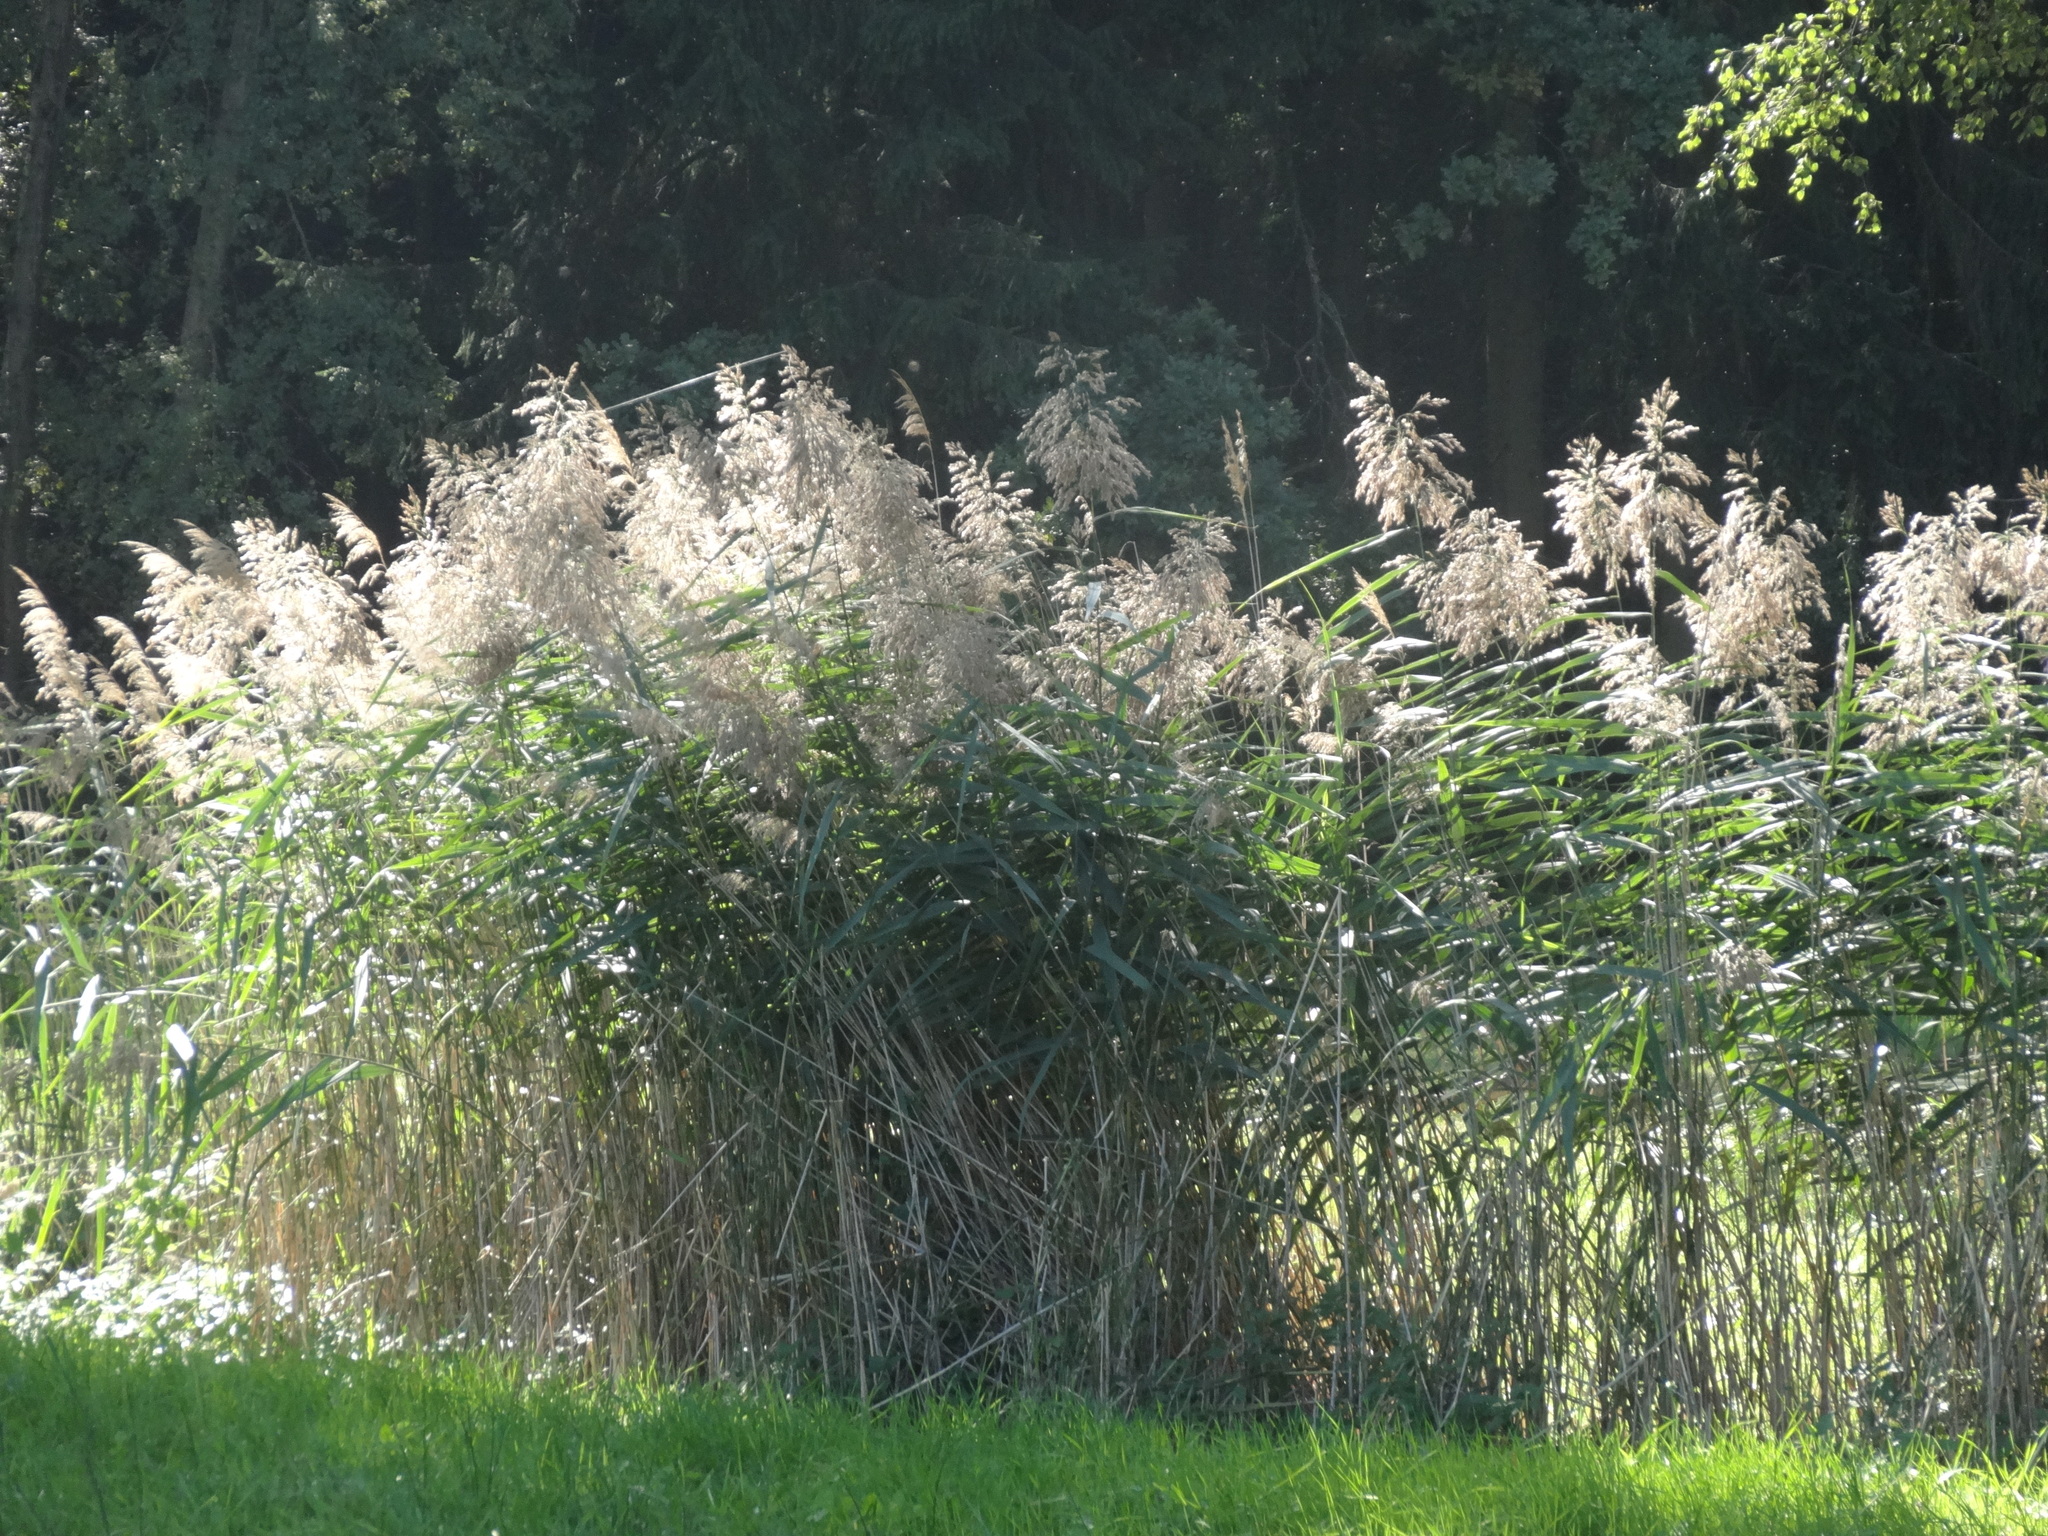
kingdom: Plantae
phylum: Tracheophyta
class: Liliopsida
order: Poales
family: Poaceae
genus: Phragmites
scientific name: Phragmites australis
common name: Common reed
